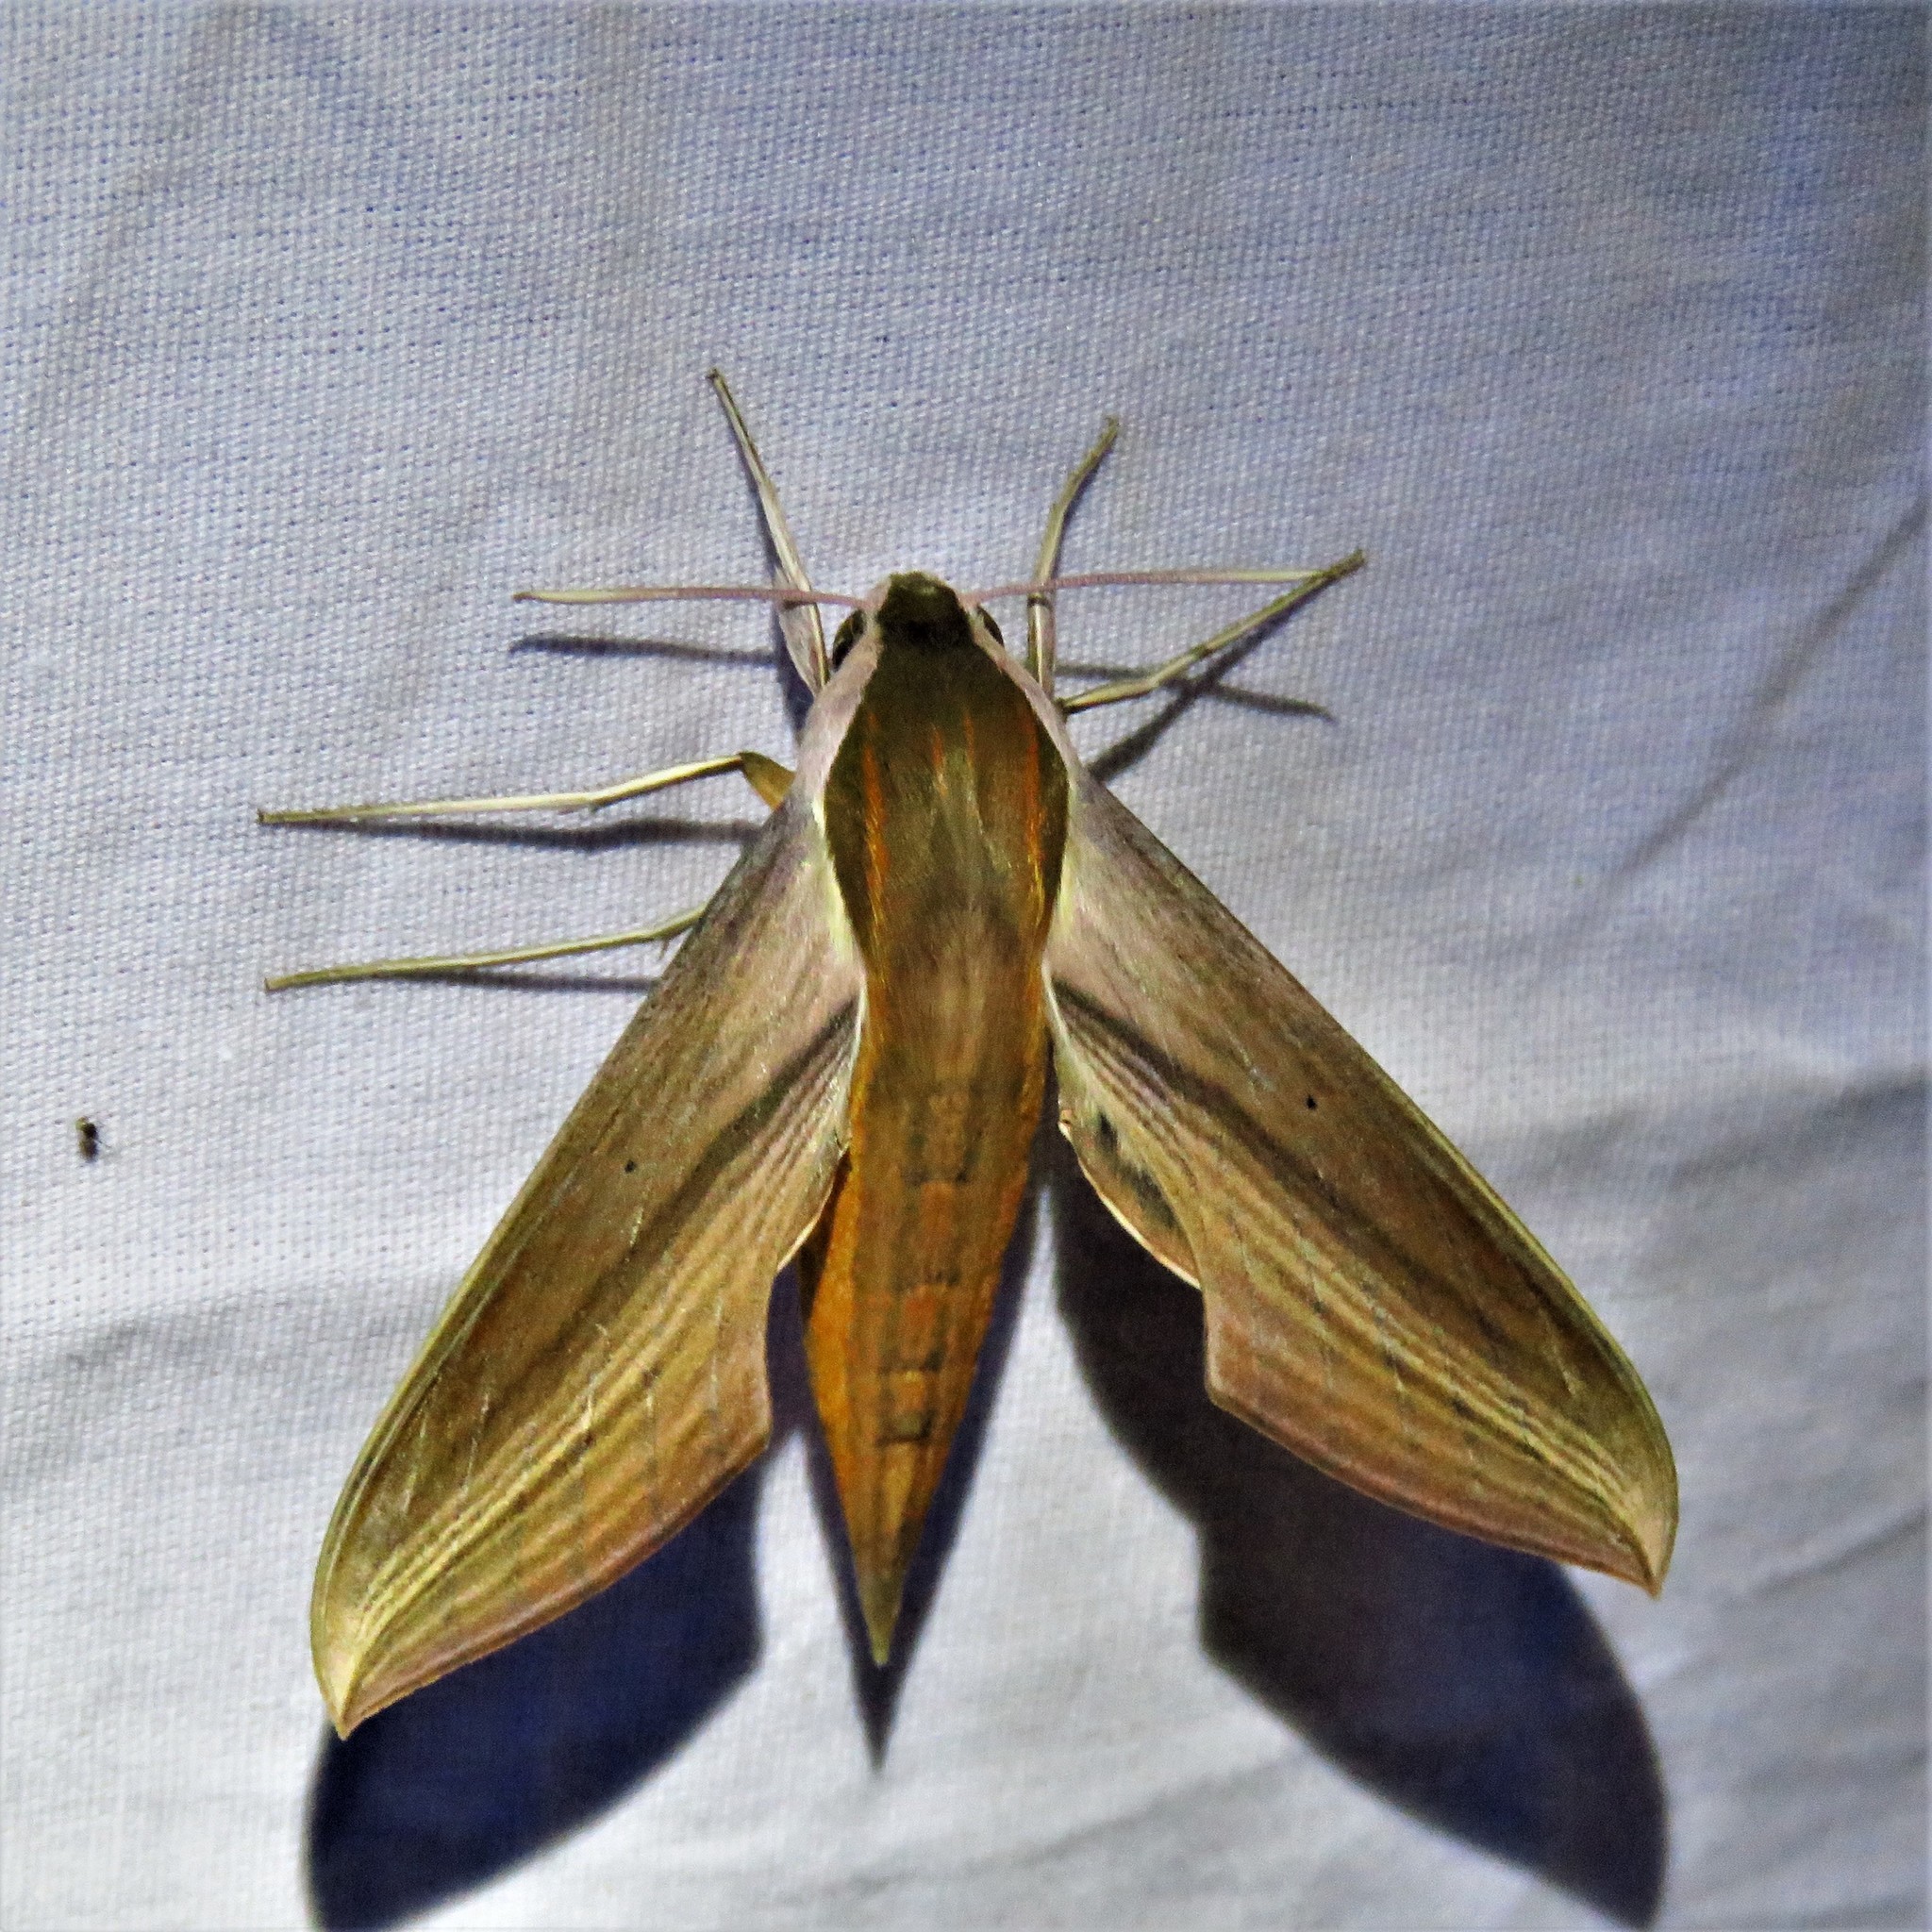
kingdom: Animalia
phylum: Arthropoda
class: Insecta
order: Lepidoptera
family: Sphingidae
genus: Xylophanes
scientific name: Xylophanes tersa
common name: Tersa sphinx
